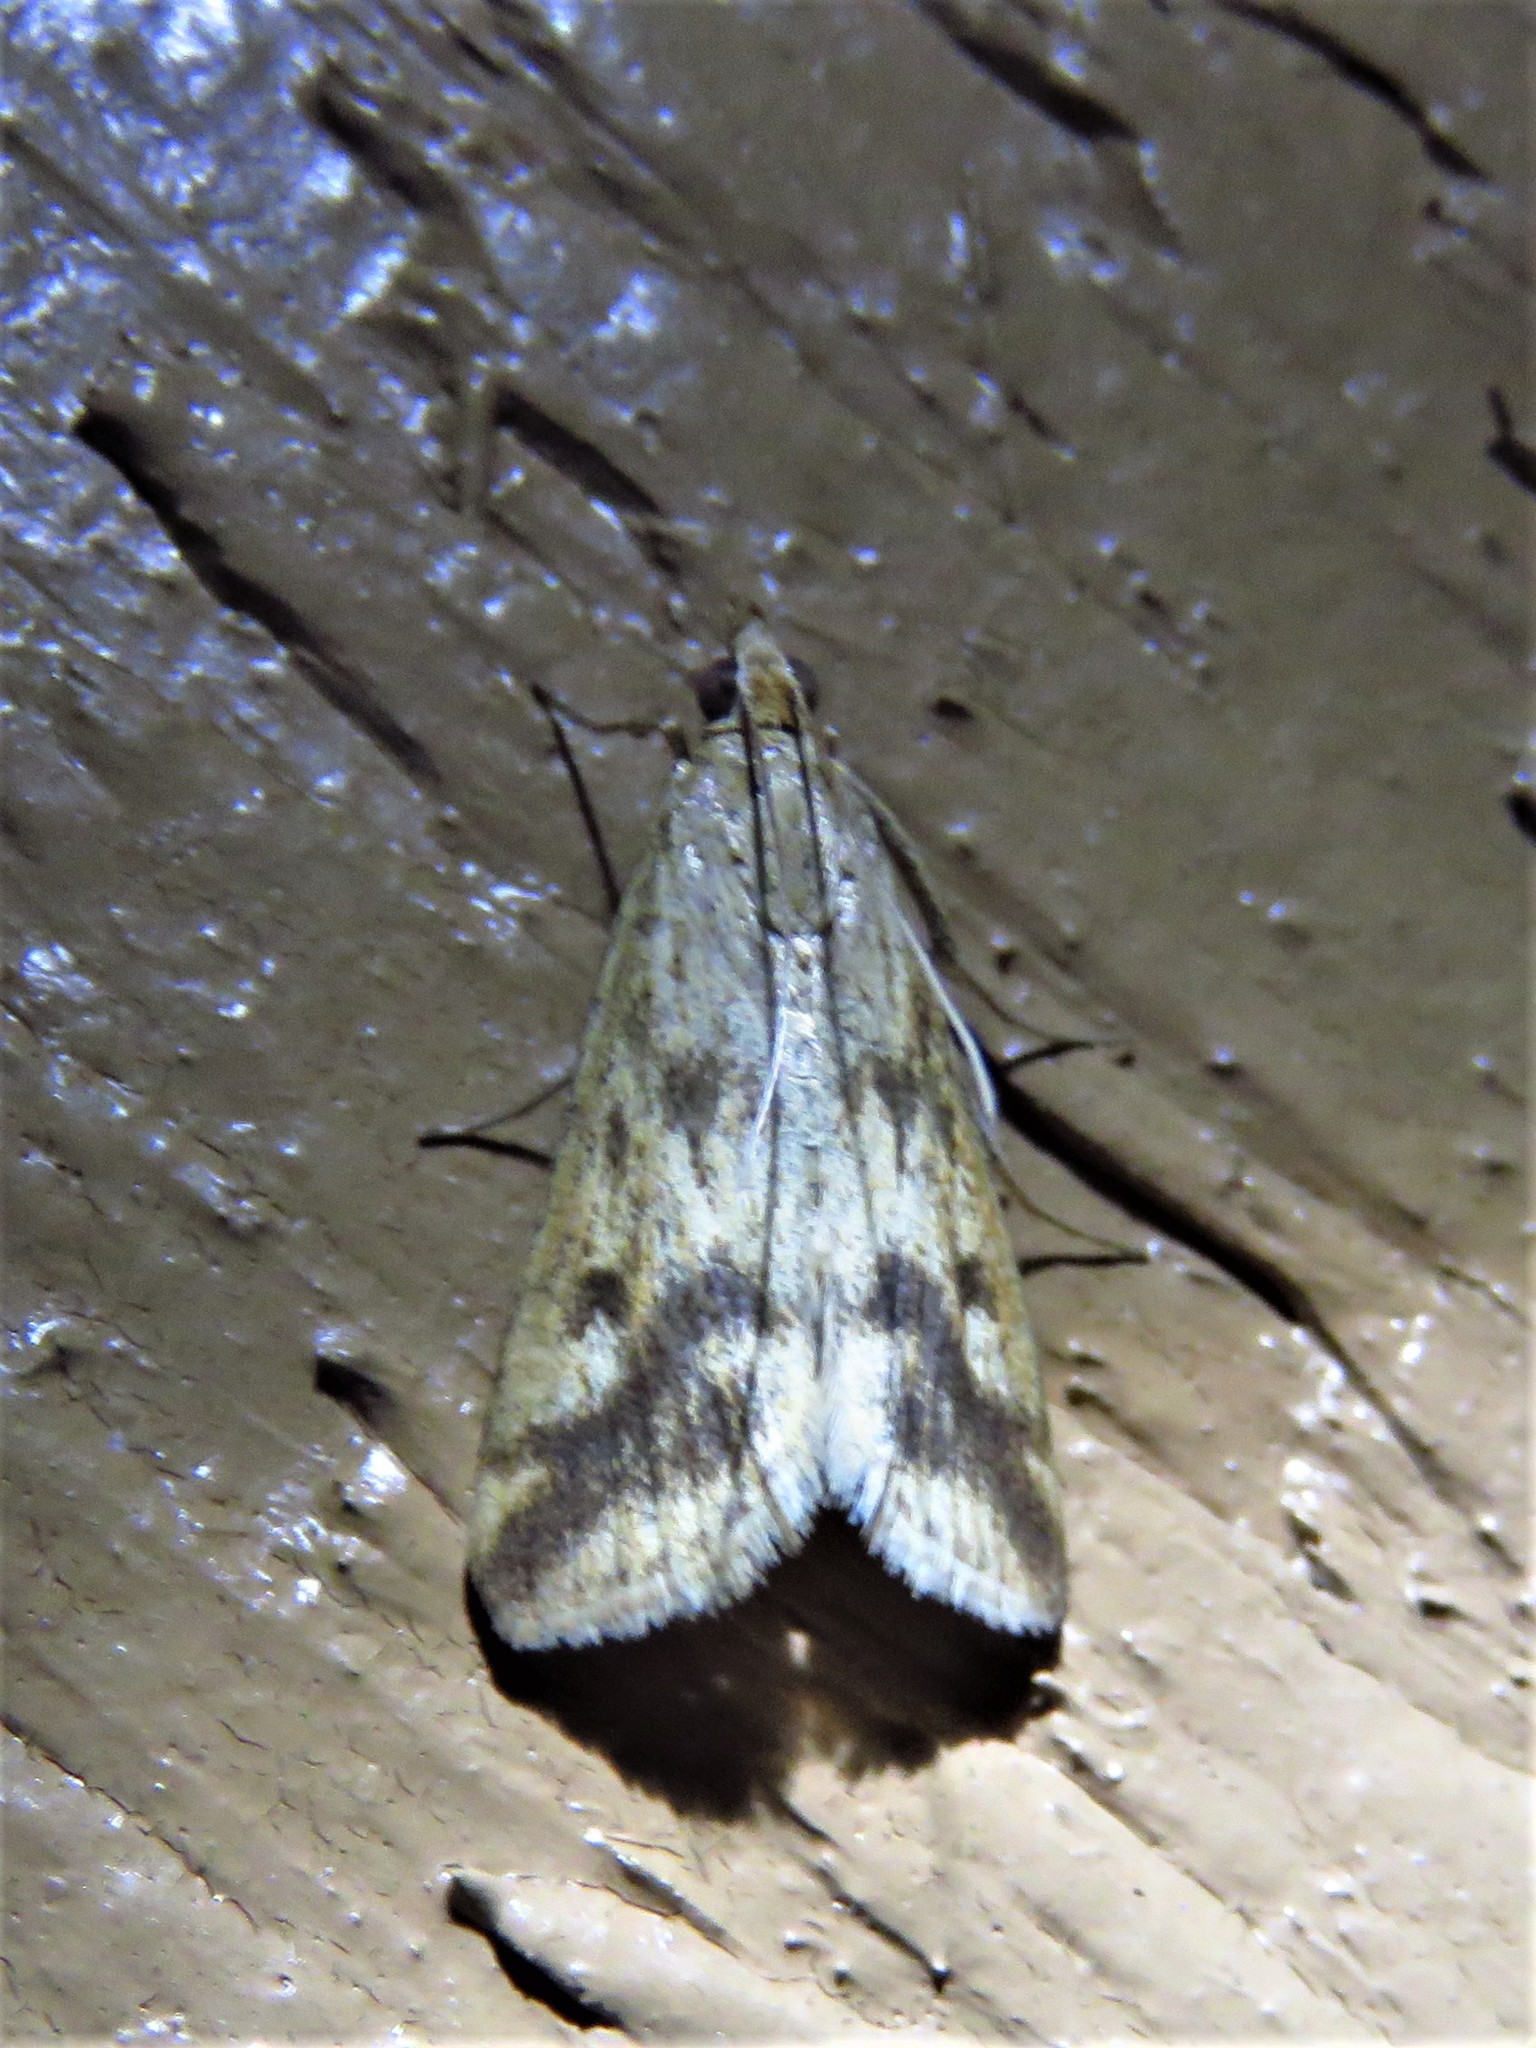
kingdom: Animalia
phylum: Arthropoda
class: Insecta
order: Lepidoptera
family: Crambidae
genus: Achyra
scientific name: Achyra bifidalis
